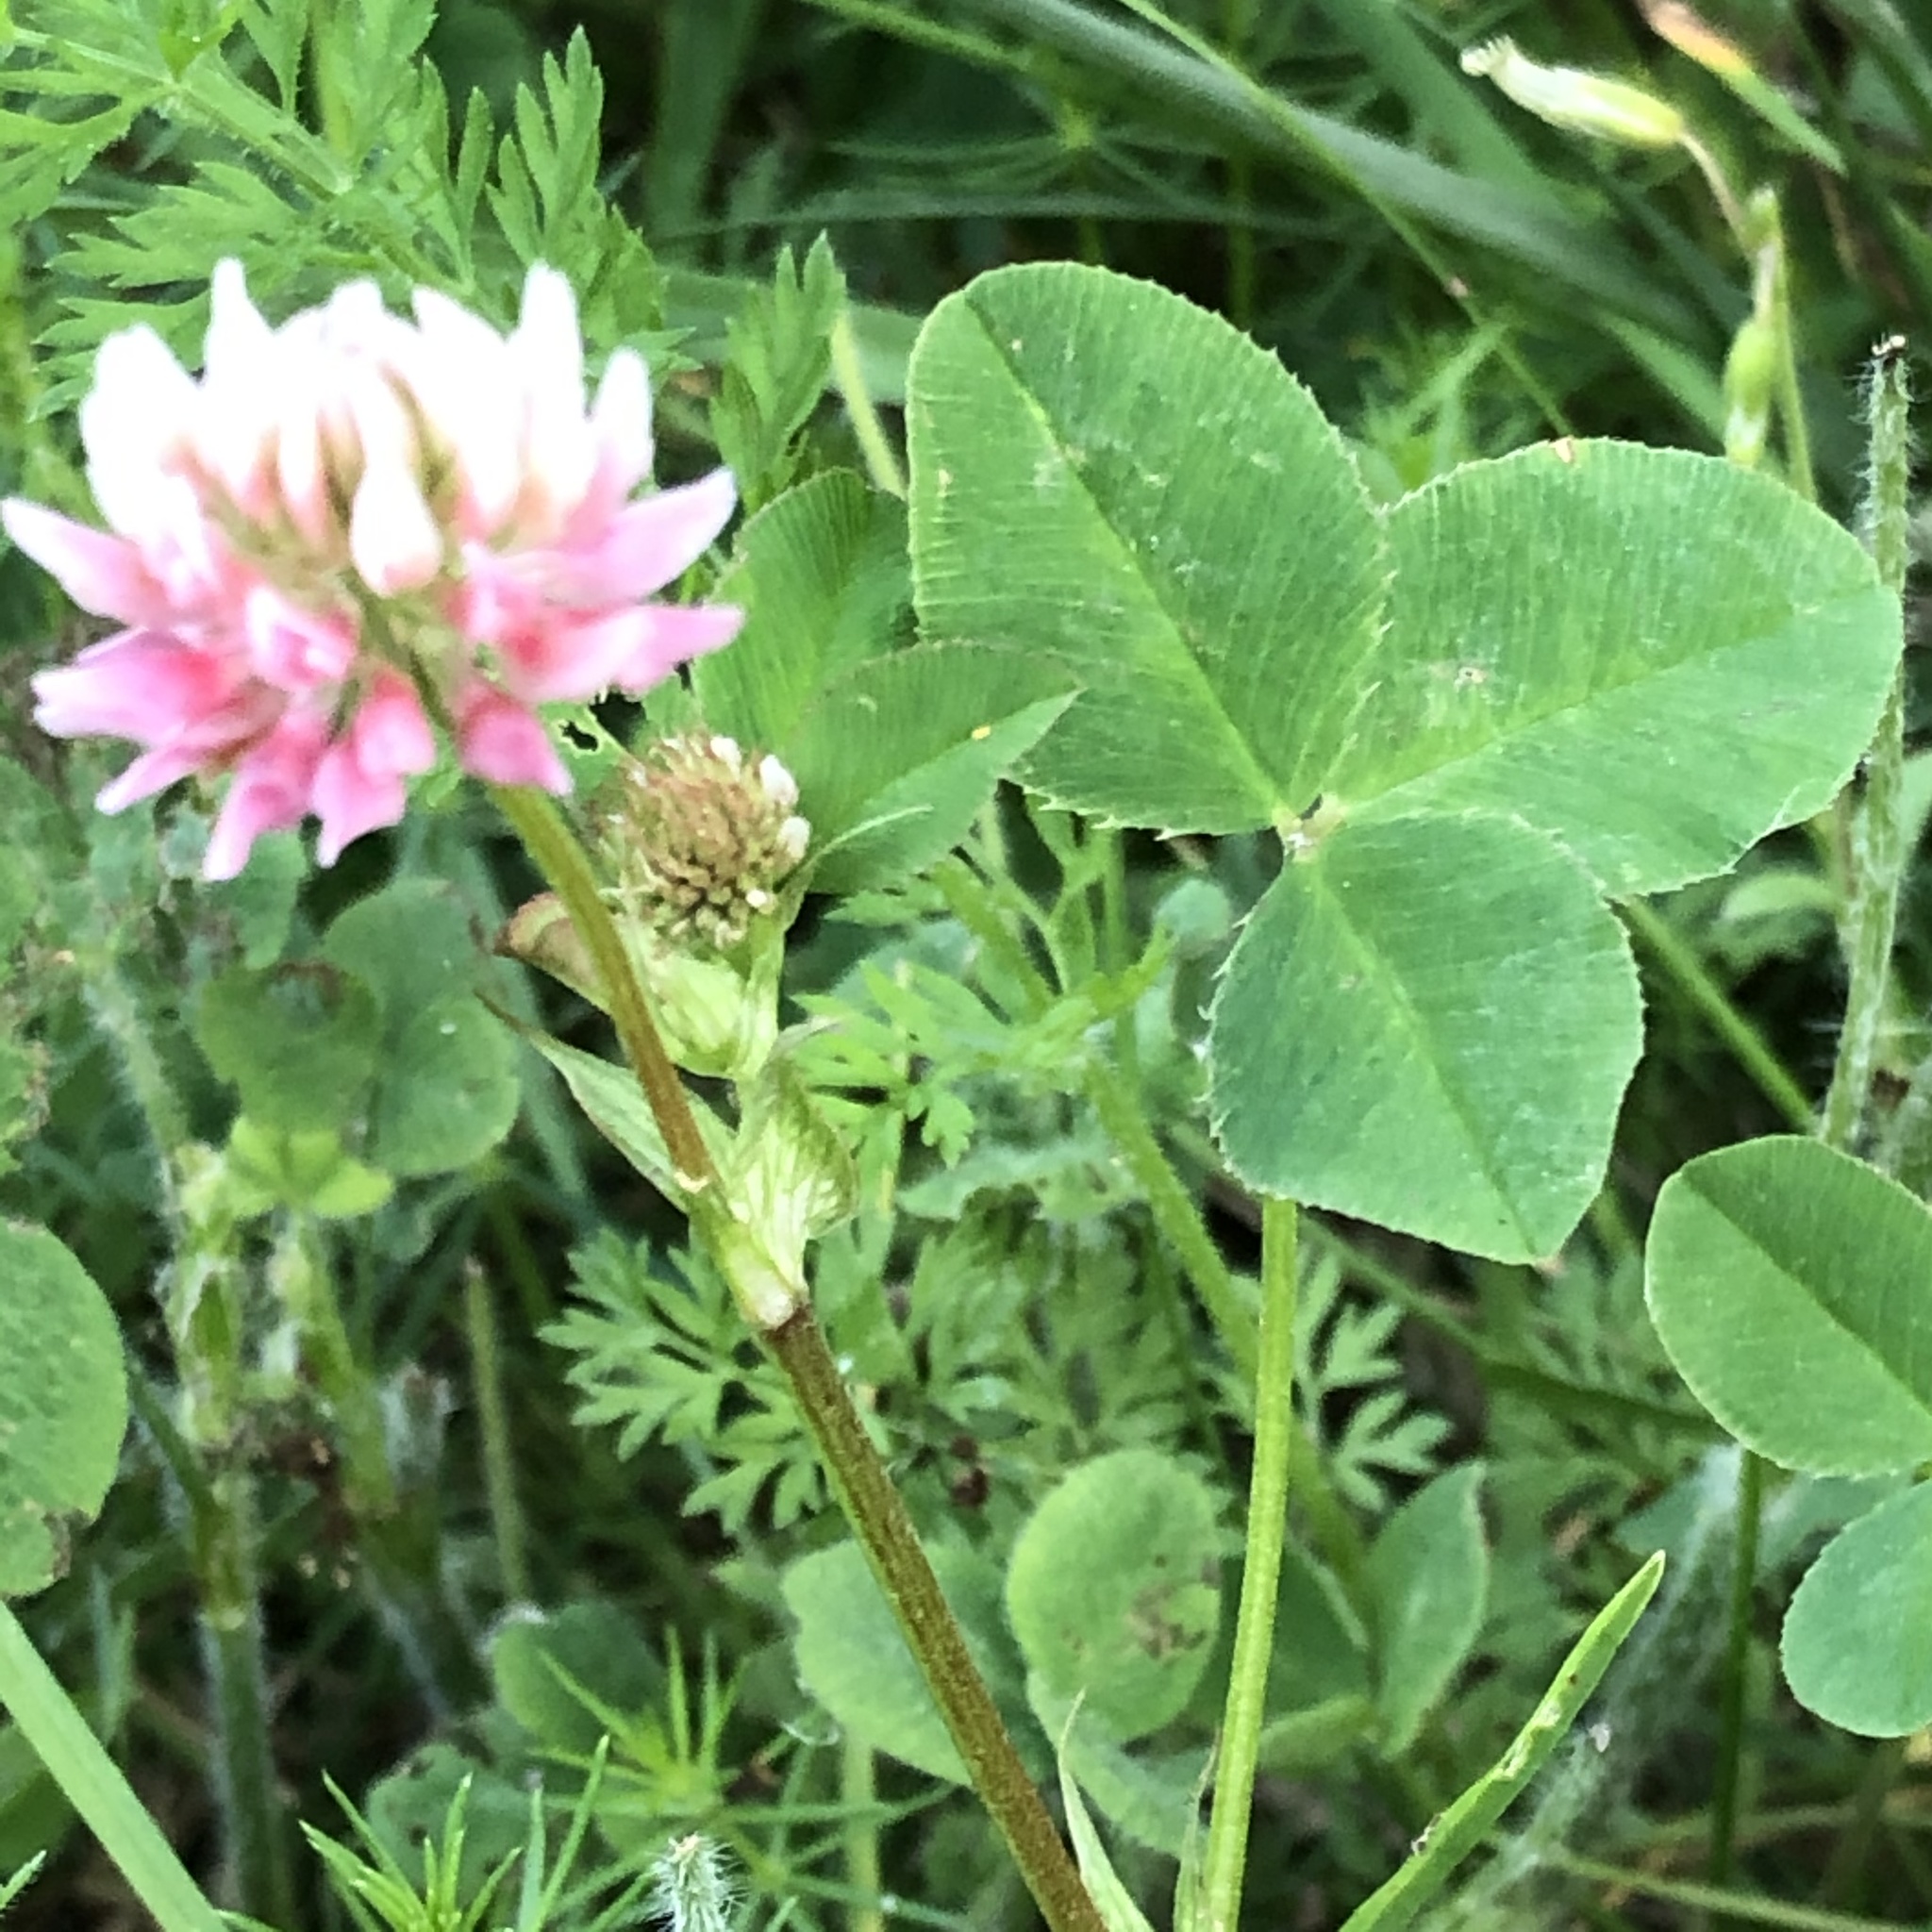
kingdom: Plantae
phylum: Tracheophyta
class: Magnoliopsida
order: Fabales
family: Fabaceae
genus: Trifolium
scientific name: Trifolium hybridum
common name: Alsike clover
